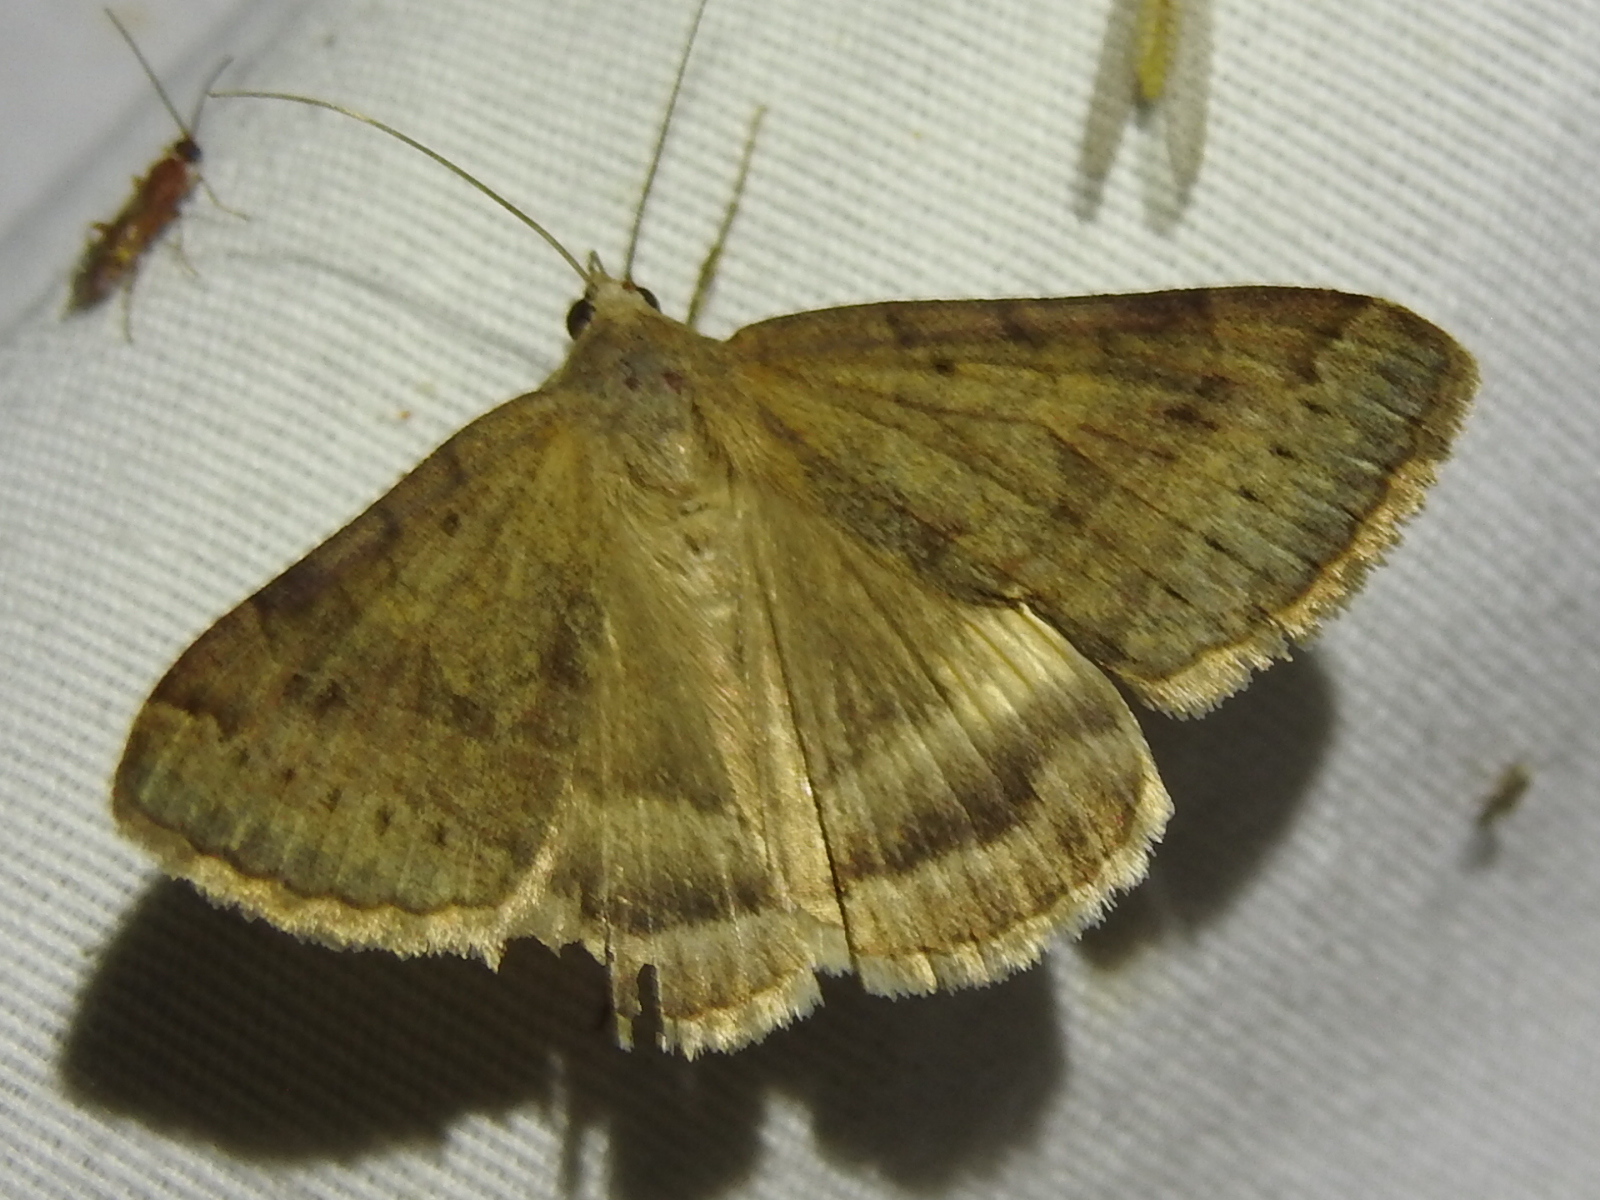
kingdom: Animalia
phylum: Arthropoda
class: Insecta
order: Lepidoptera
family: Erebidae
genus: Caenurgina
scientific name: Caenurgina erechtea
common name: Forage looper moth
